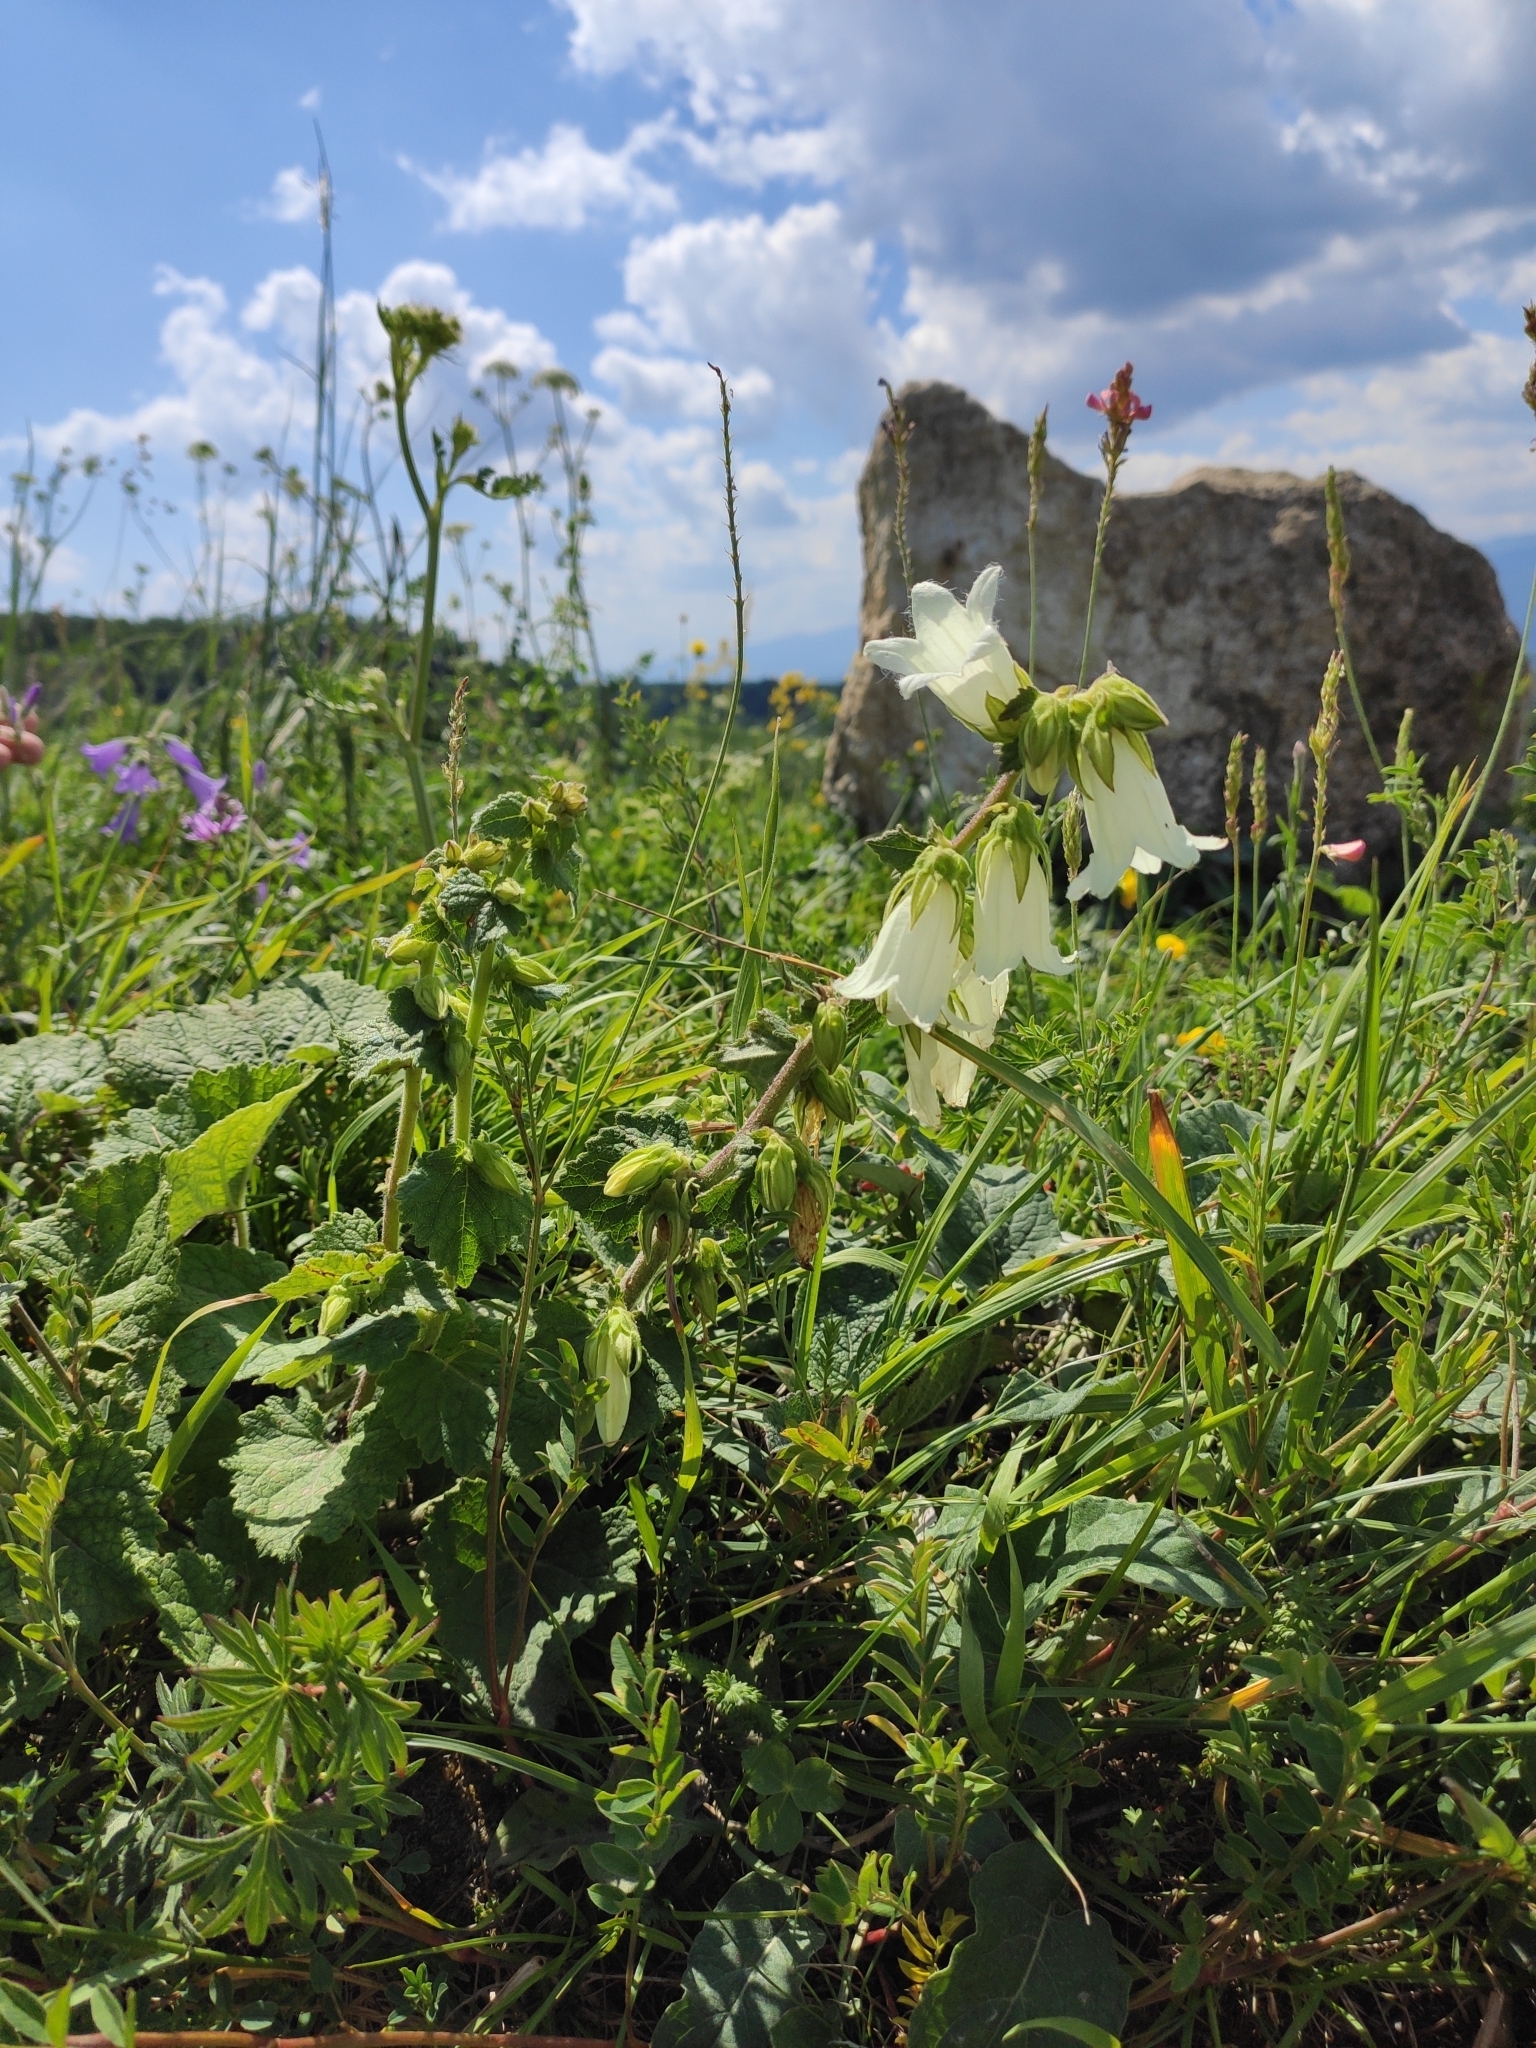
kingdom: Plantae
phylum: Tracheophyta
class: Magnoliopsida
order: Asterales
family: Campanulaceae
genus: Campanula
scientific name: Campanula alliariifolia
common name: Cornish bellflower
